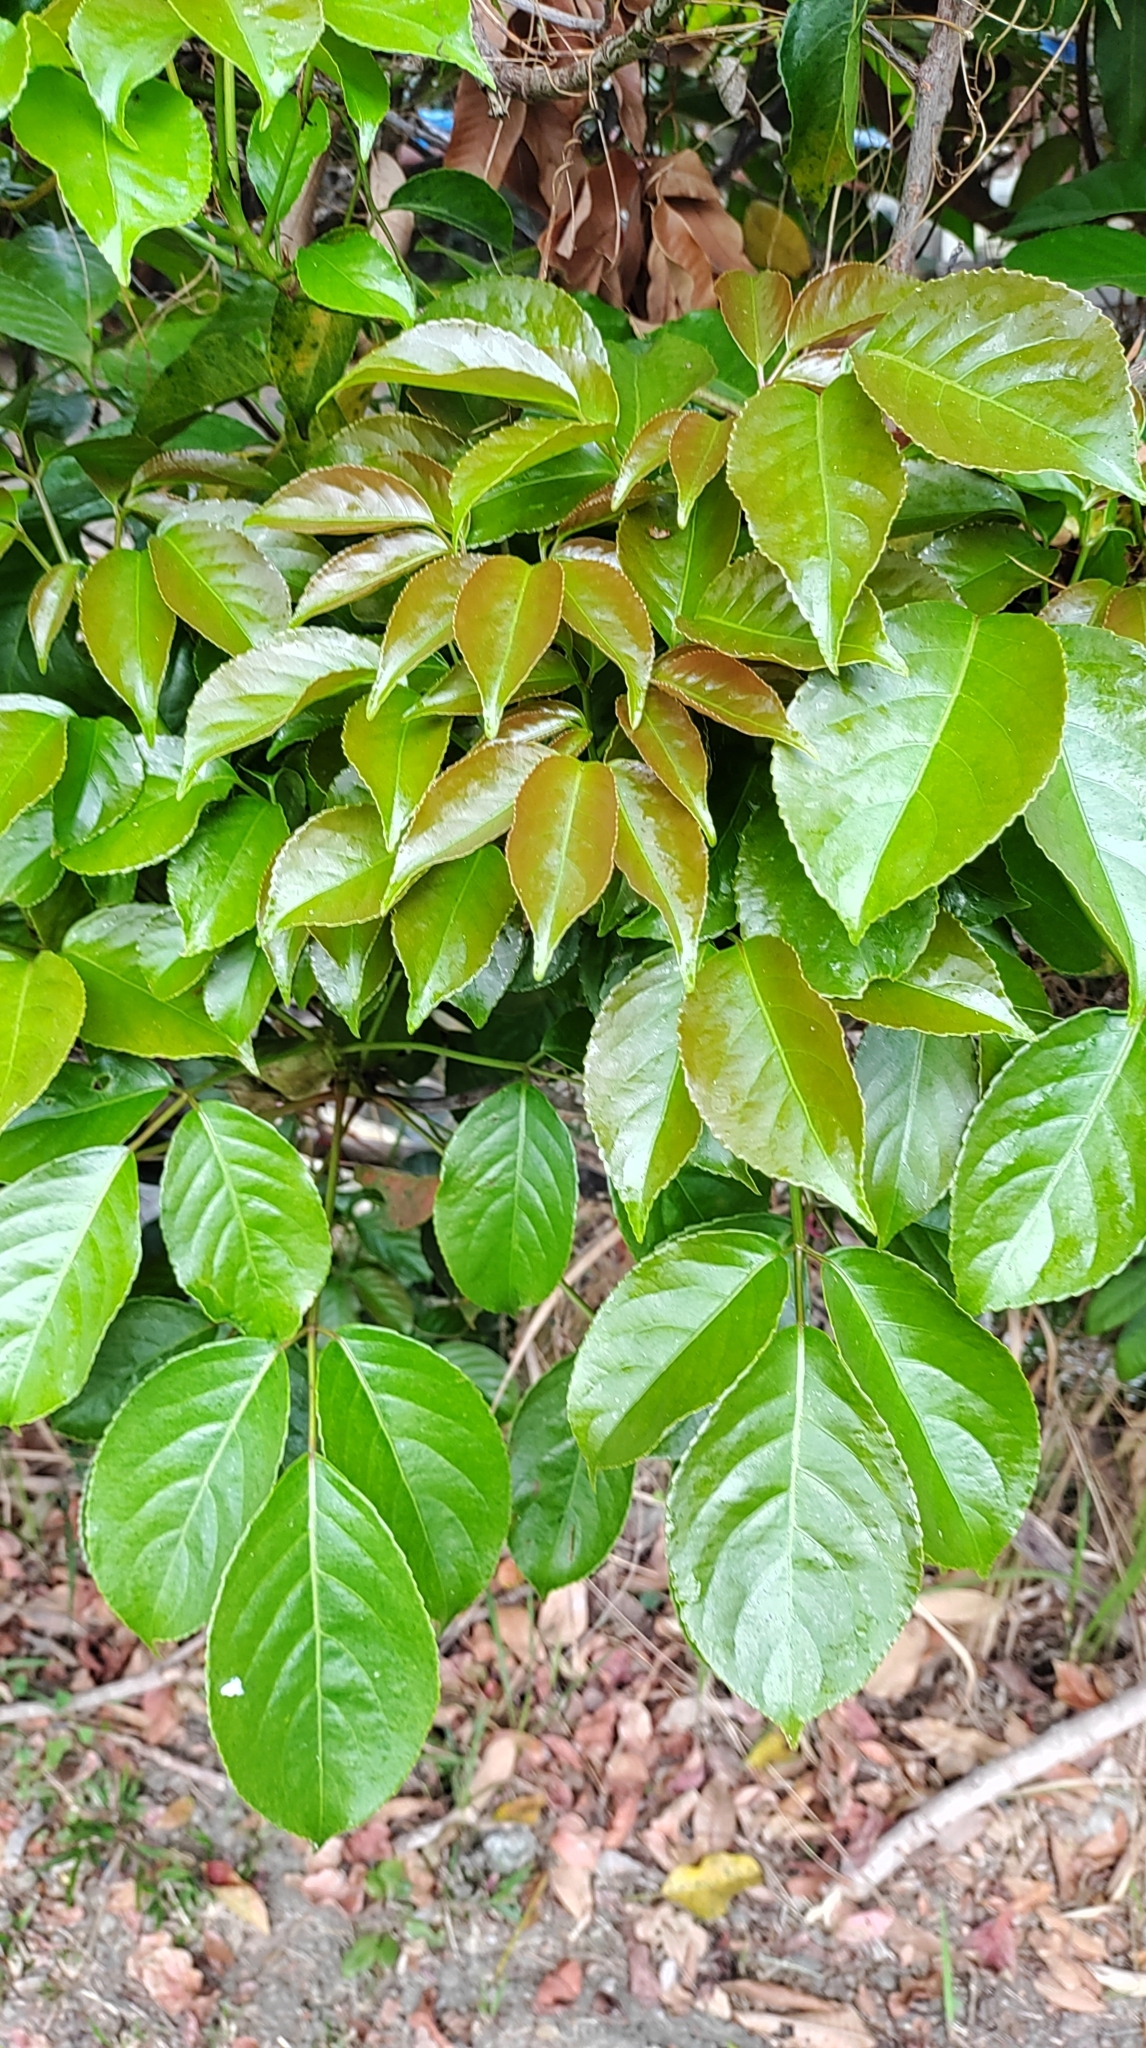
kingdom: Plantae
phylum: Tracheophyta
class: Magnoliopsida
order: Malpighiales
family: Phyllanthaceae
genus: Bischofia
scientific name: Bischofia javanica
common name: Javanese bishopwood
